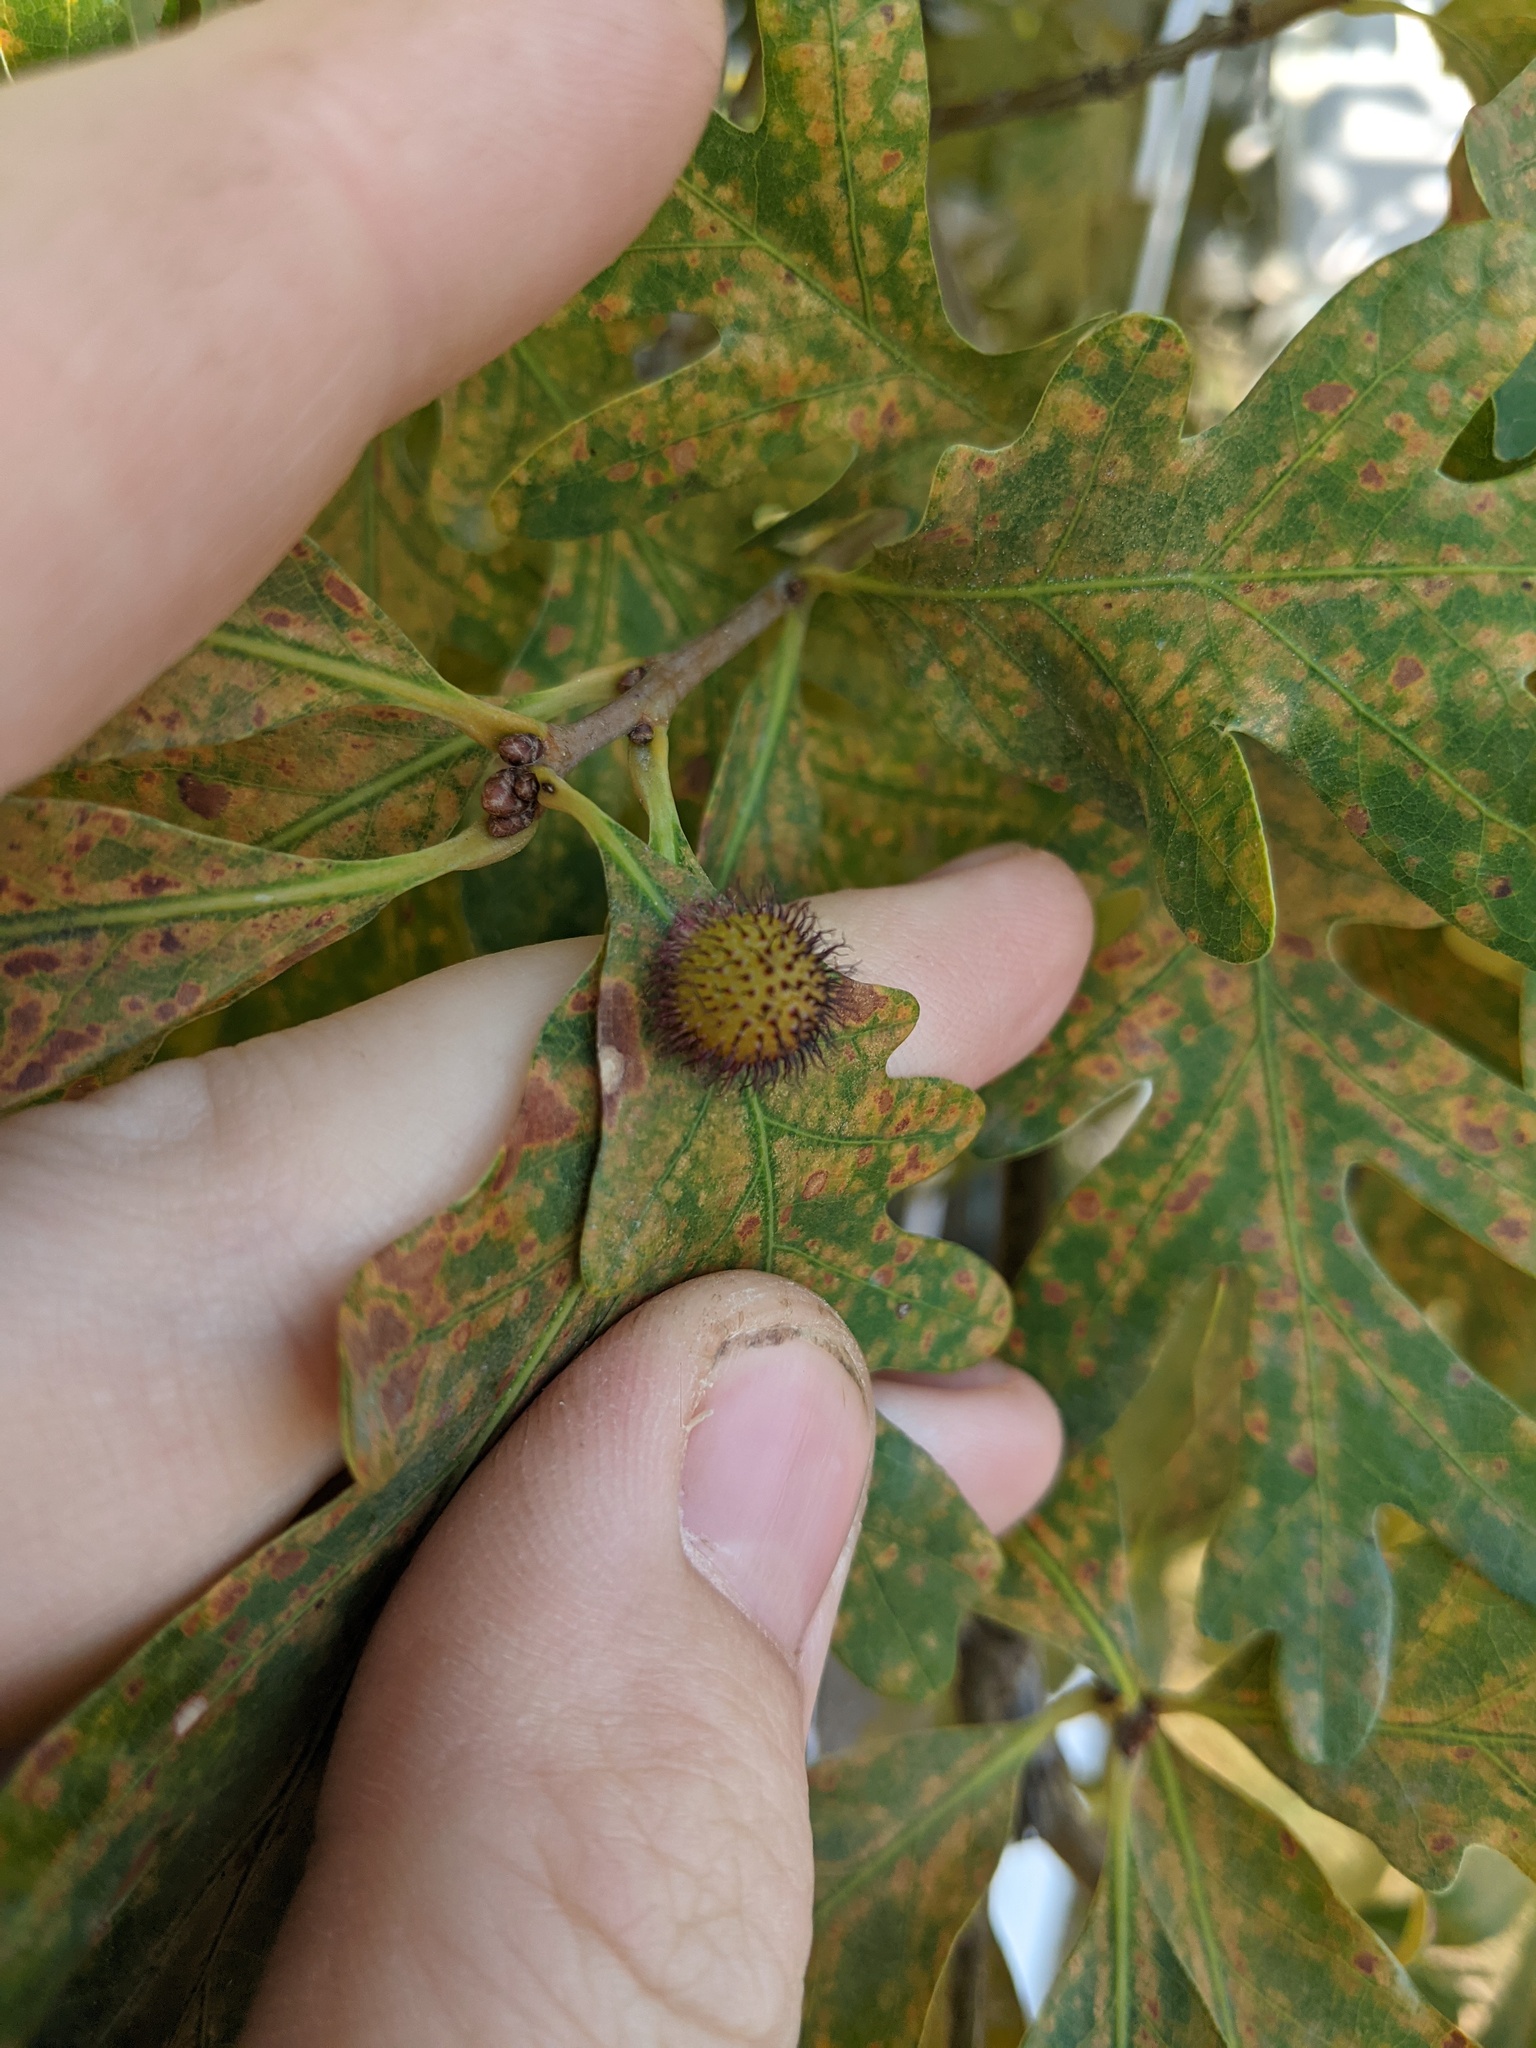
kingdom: Animalia
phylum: Arthropoda
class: Insecta
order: Hymenoptera
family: Cynipidae
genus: Acraspis
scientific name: Acraspis erinacei
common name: Hedgehog gall wasp
